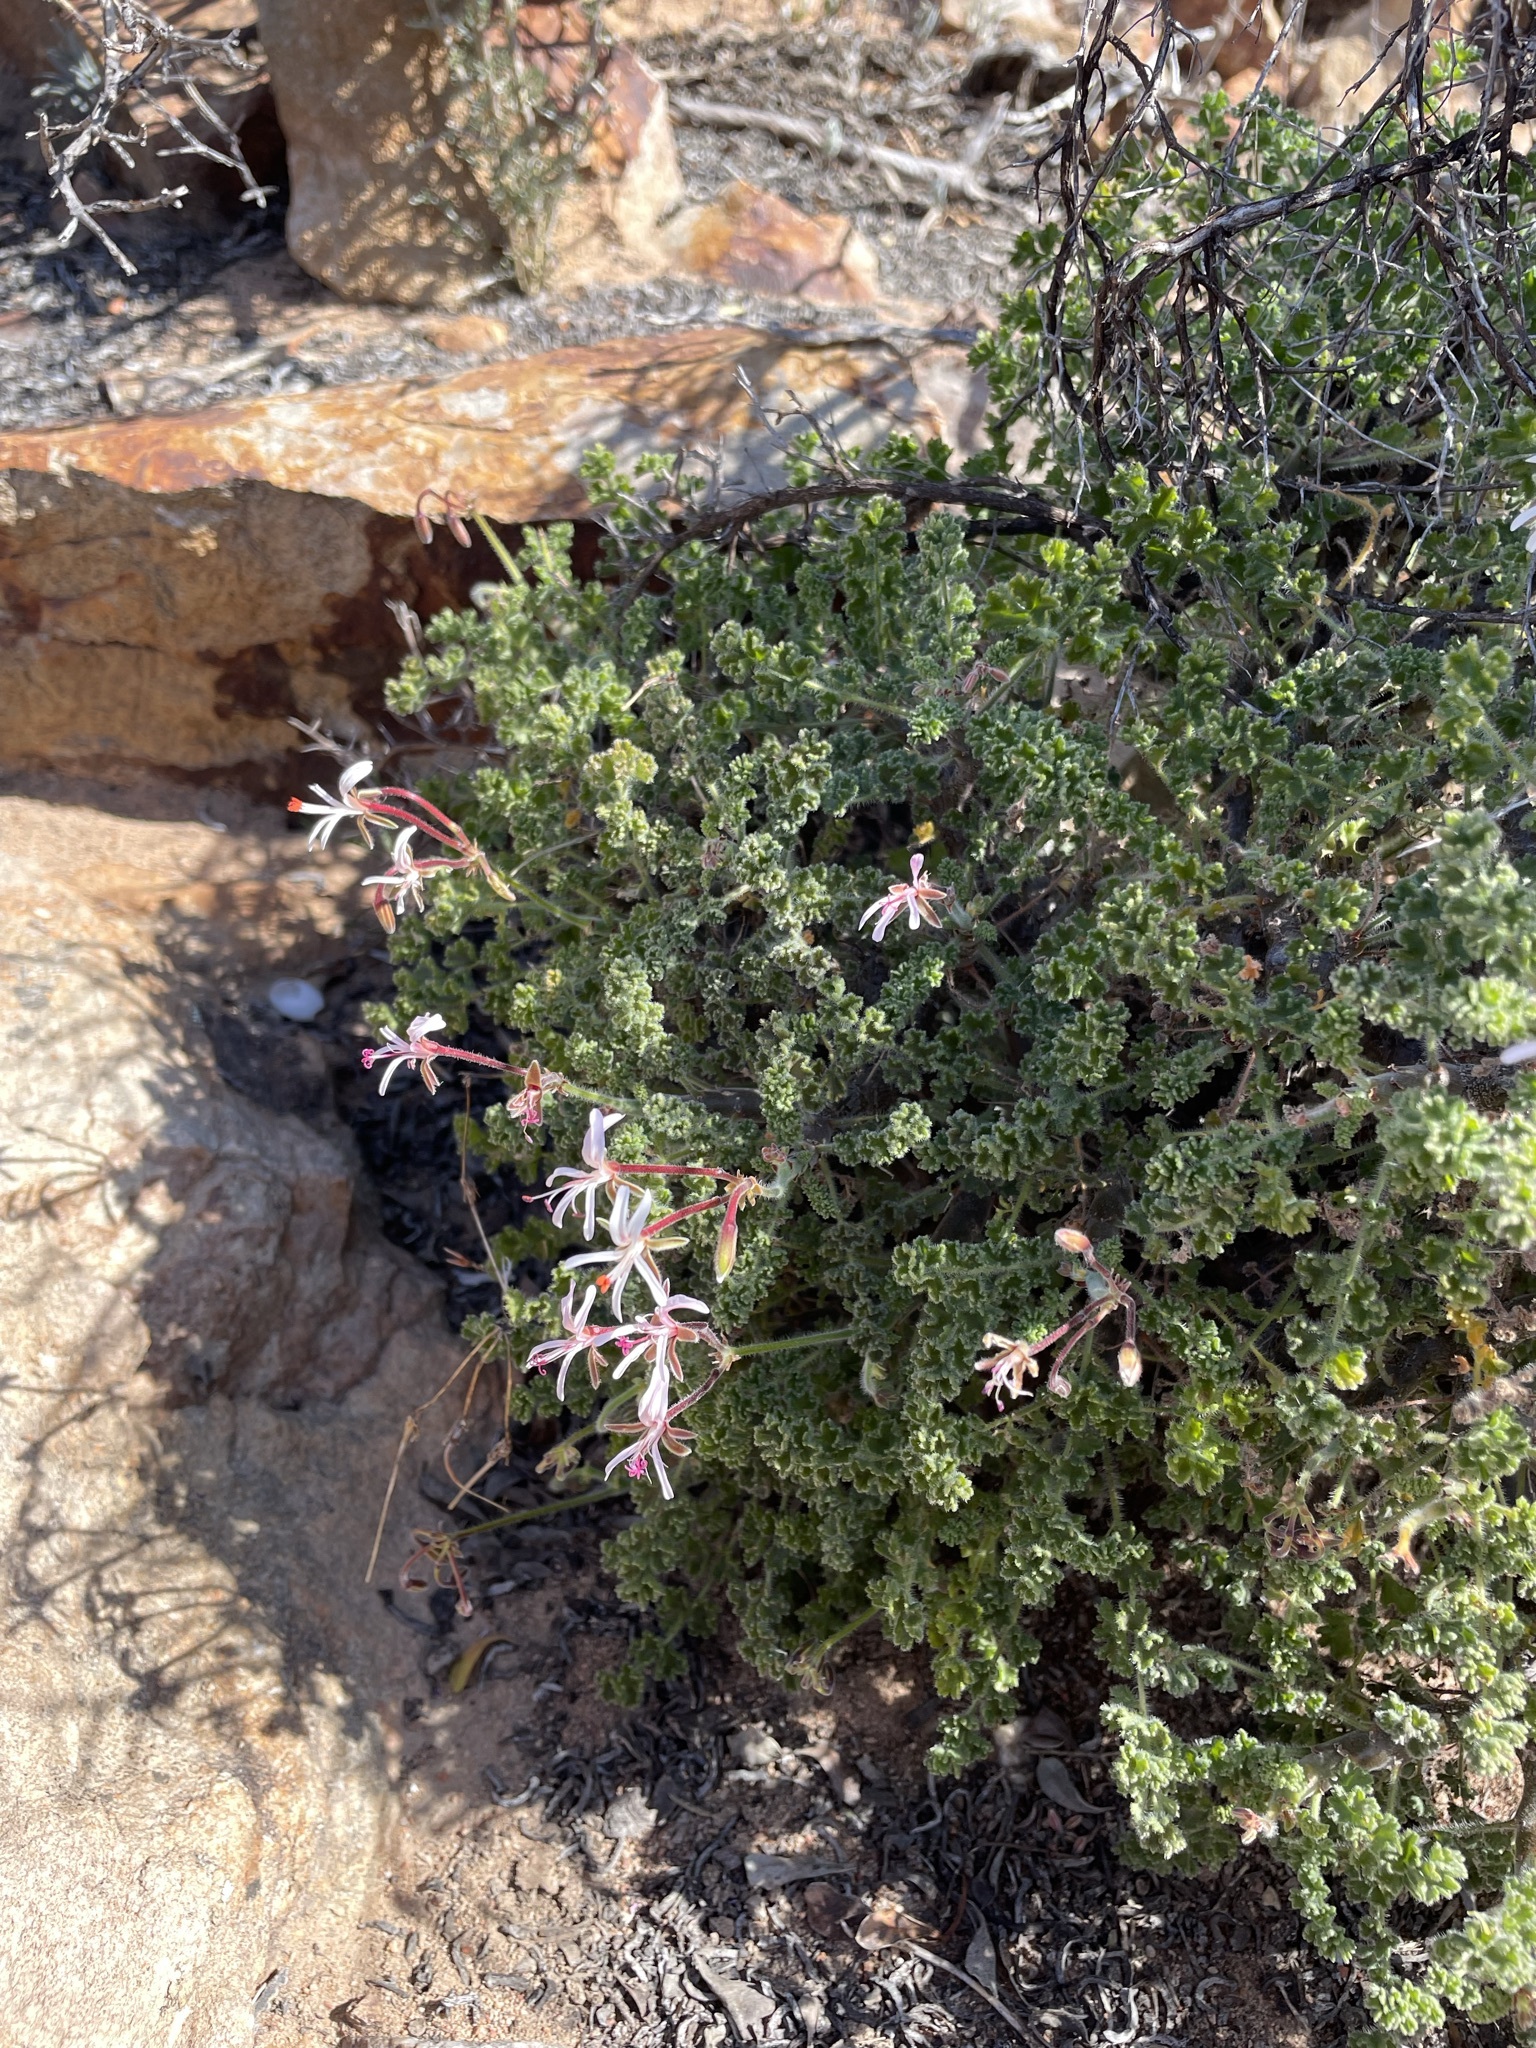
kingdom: Plantae
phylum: Tracheophyta
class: Magnoliopsida
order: Geraniales
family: Geraniaceae
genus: Pelargonium
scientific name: Pelargonium alternans
